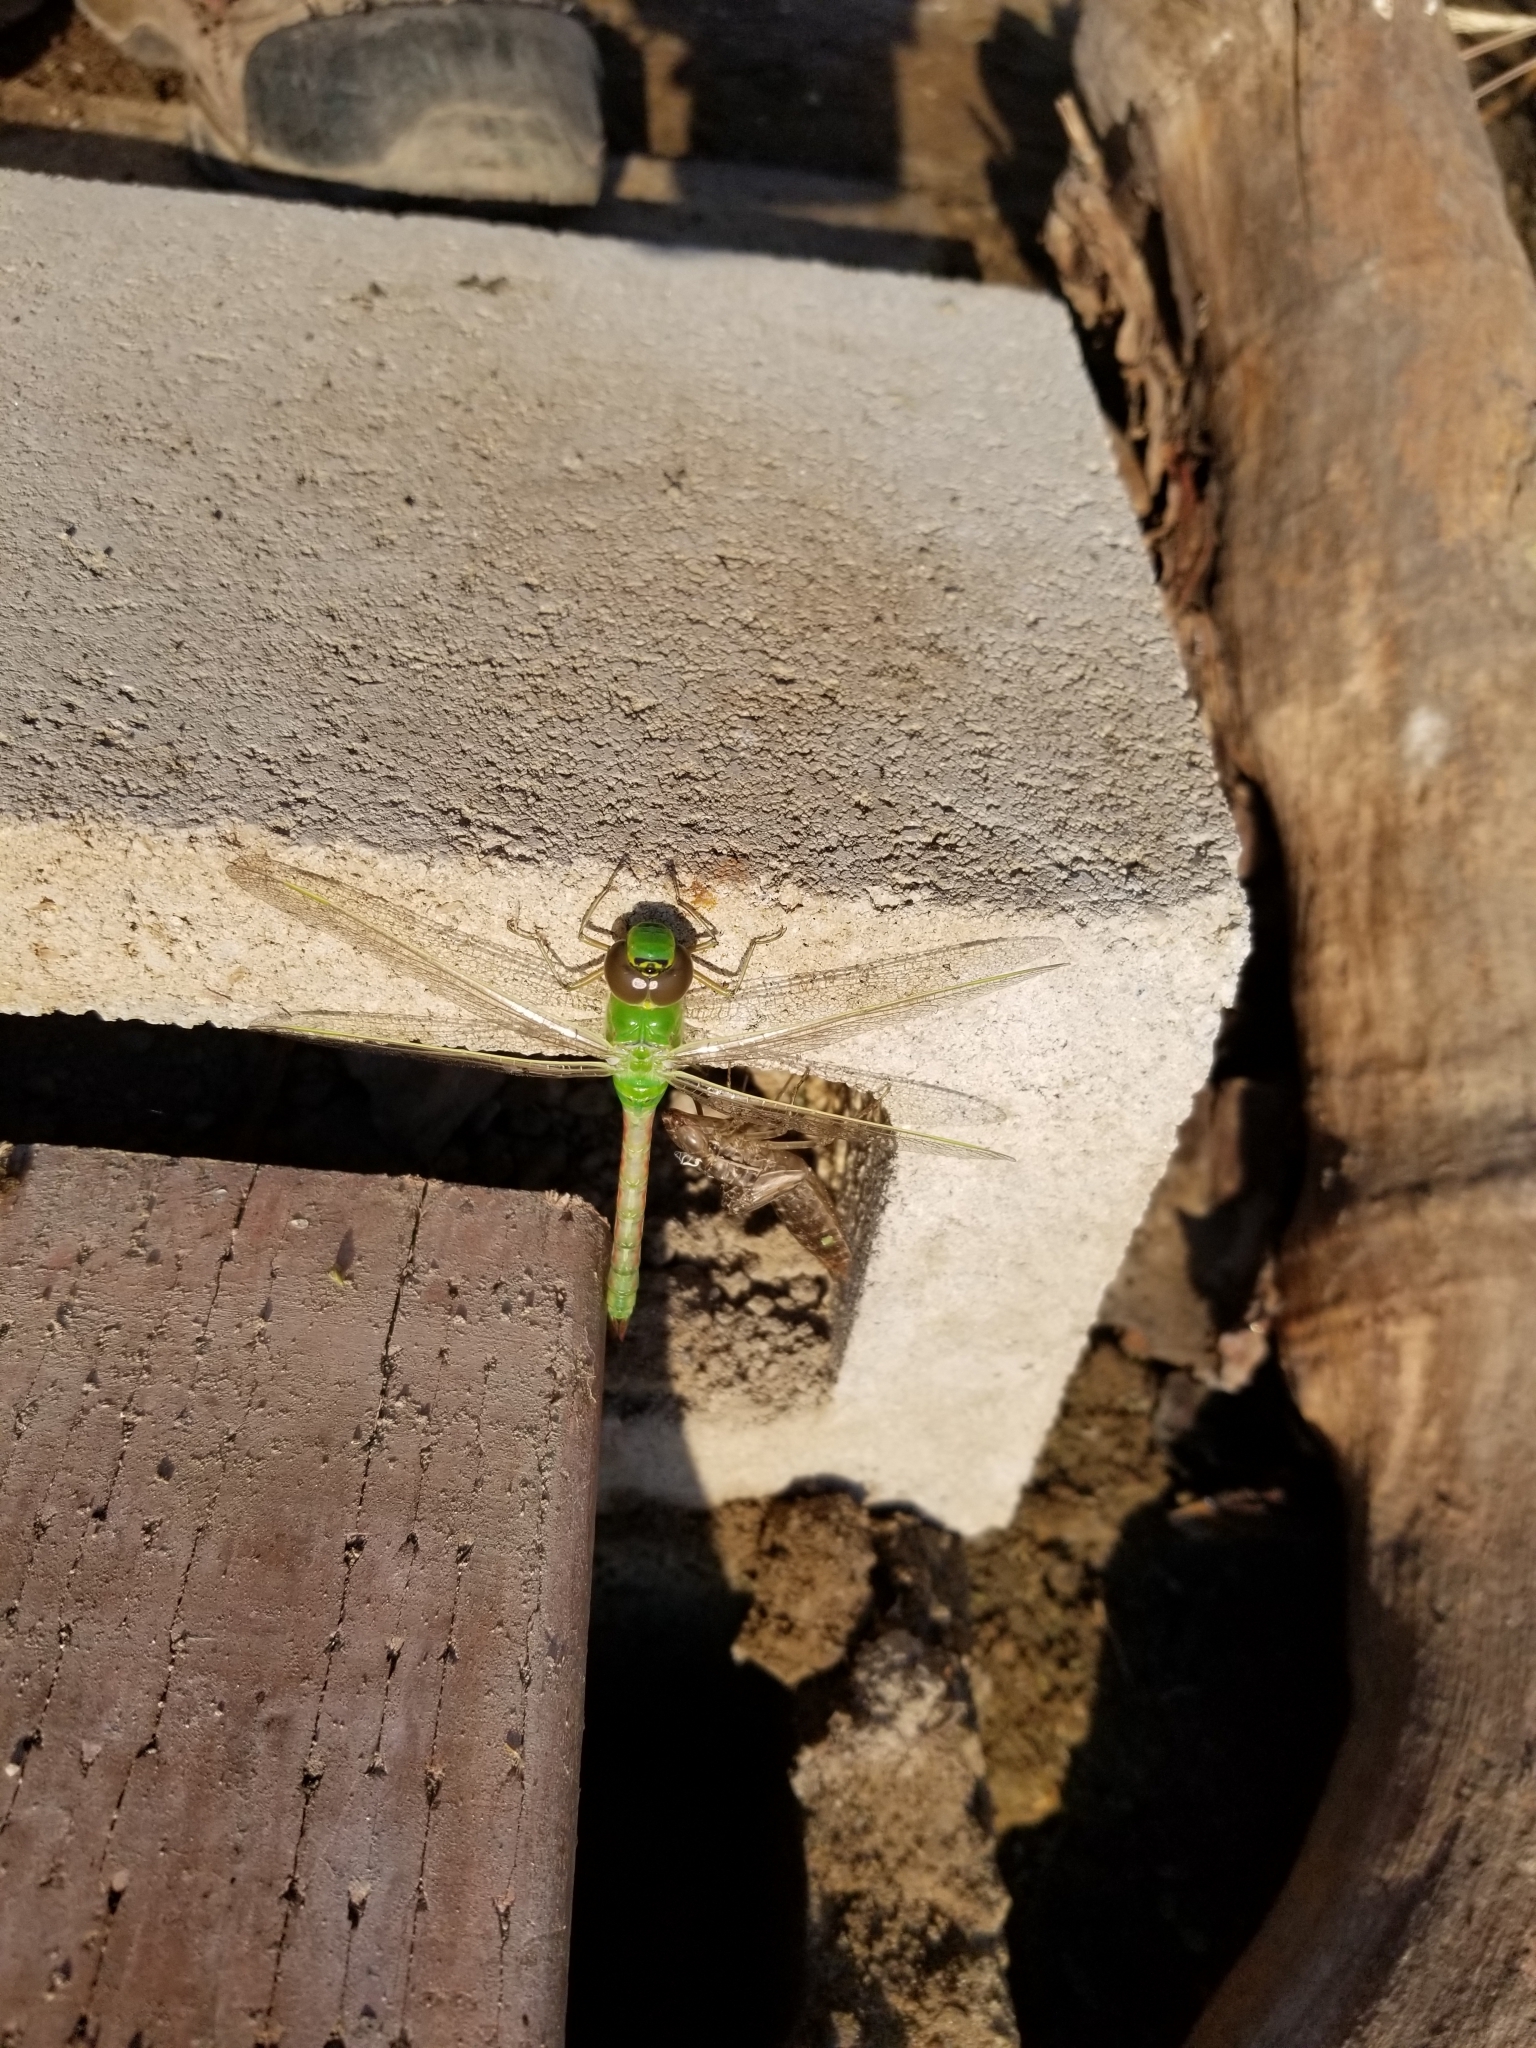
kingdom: Animalia
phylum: Arthropoda
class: Insecta
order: Odonata
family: Aeshnidae
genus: Anax
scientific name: Anax junius
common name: Common green darner
